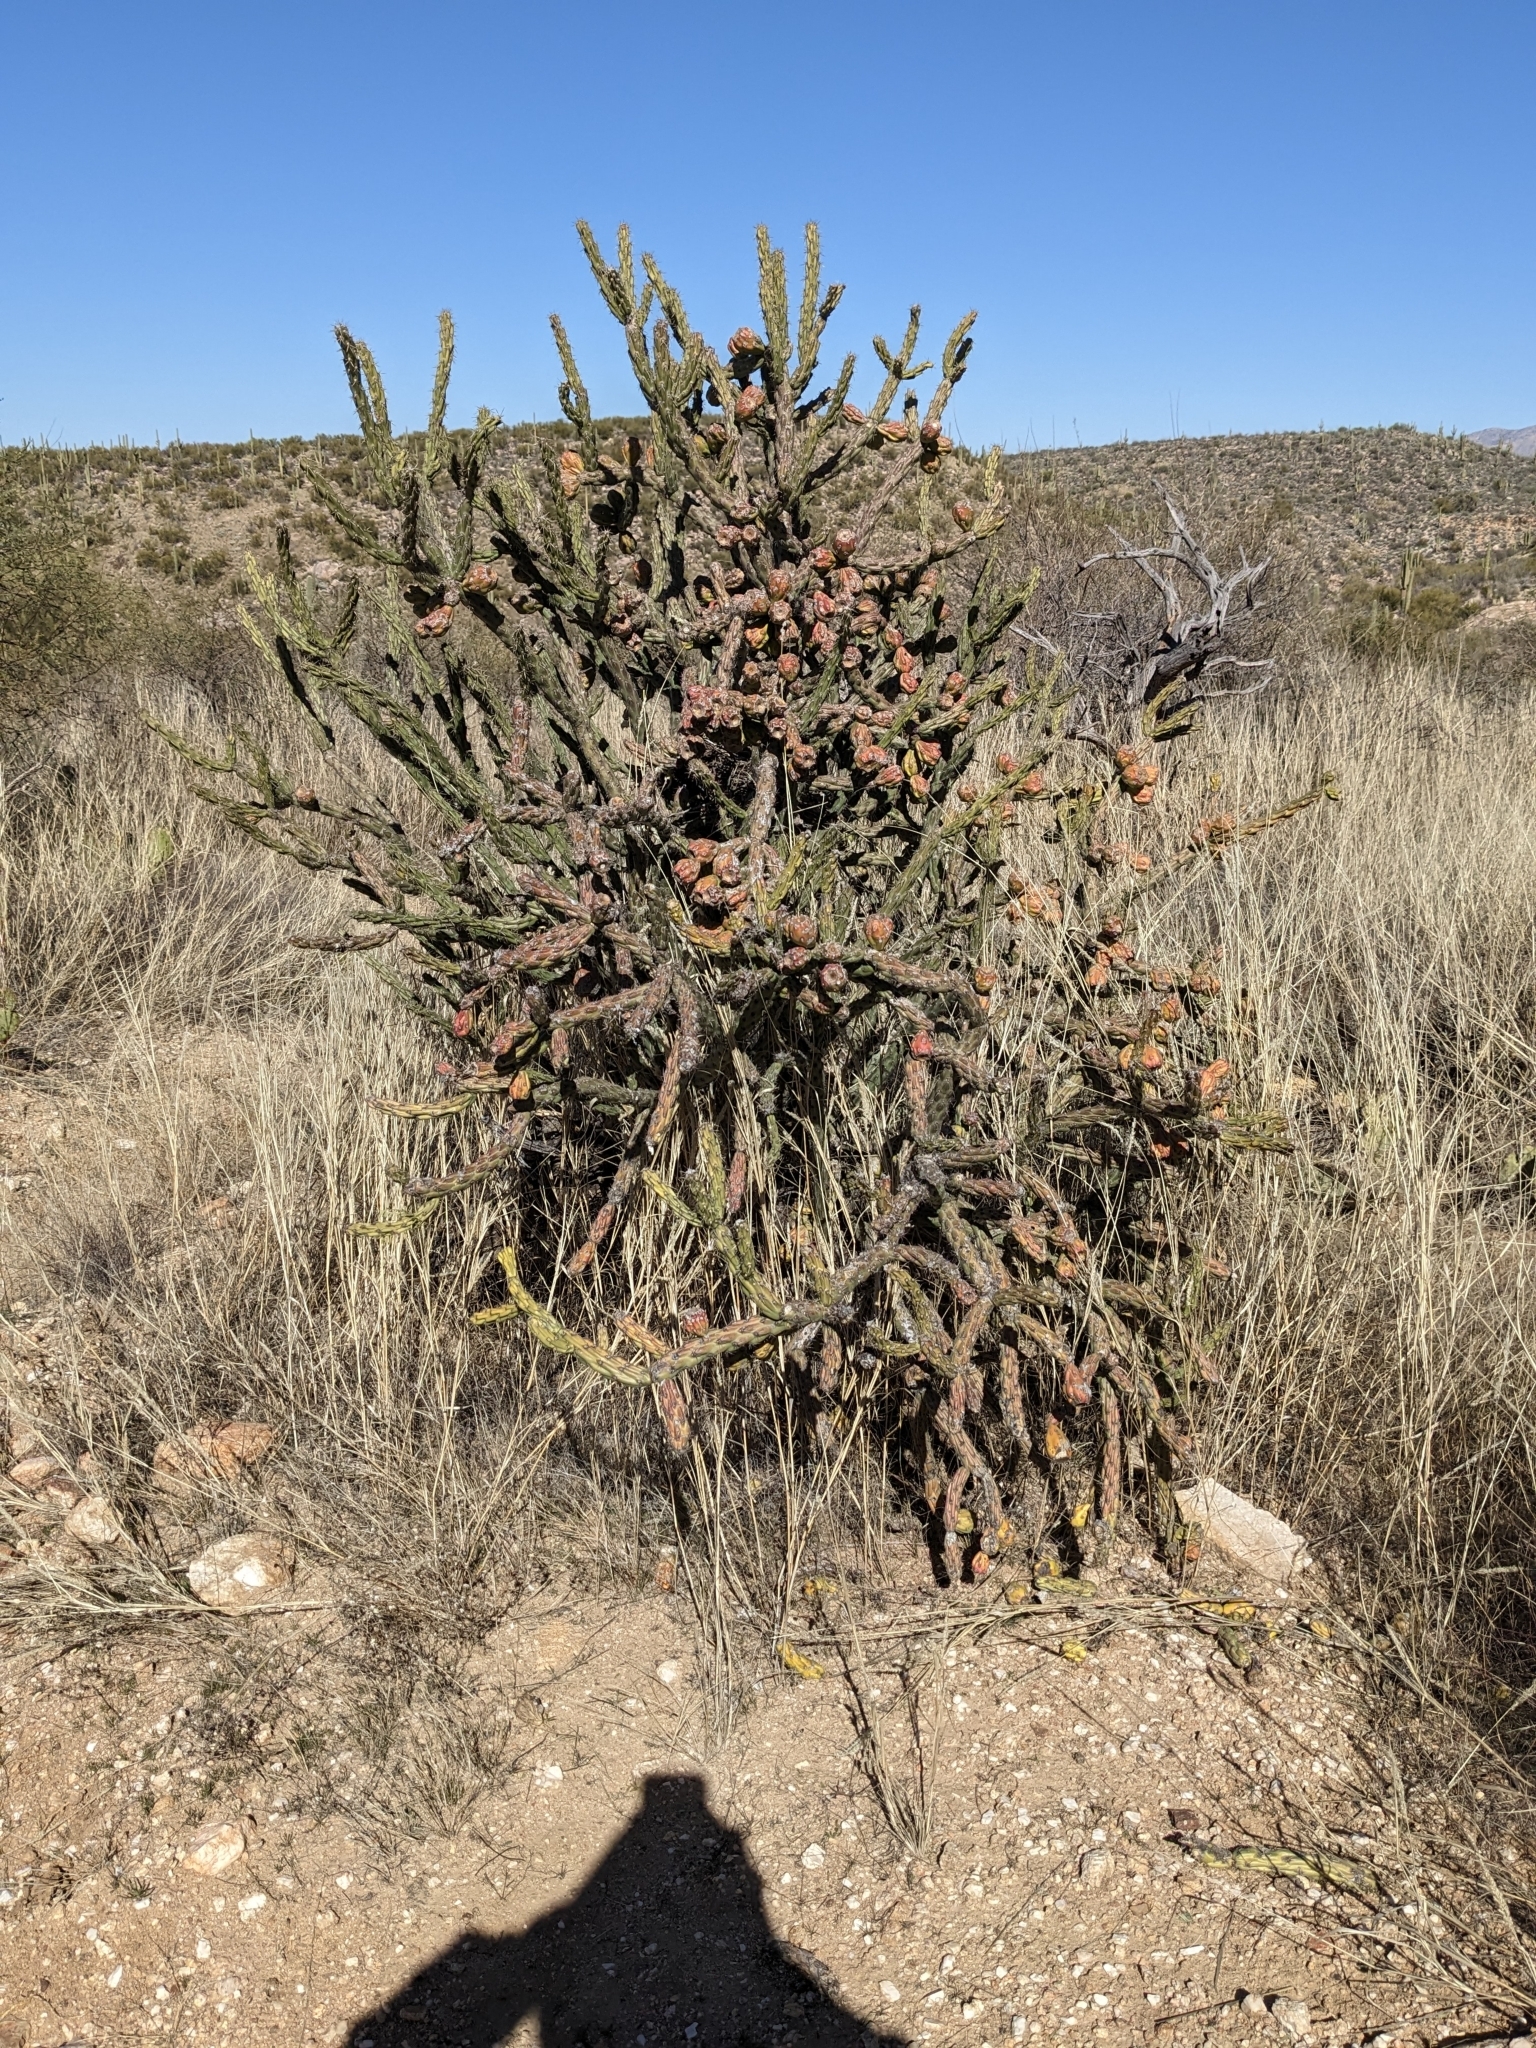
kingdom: Plantae
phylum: Tracheophyta
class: Magnoliopsida
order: Caryophyllales
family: Cactaceae
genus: Cylindropuntia
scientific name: Cylindropuntia thurberi
